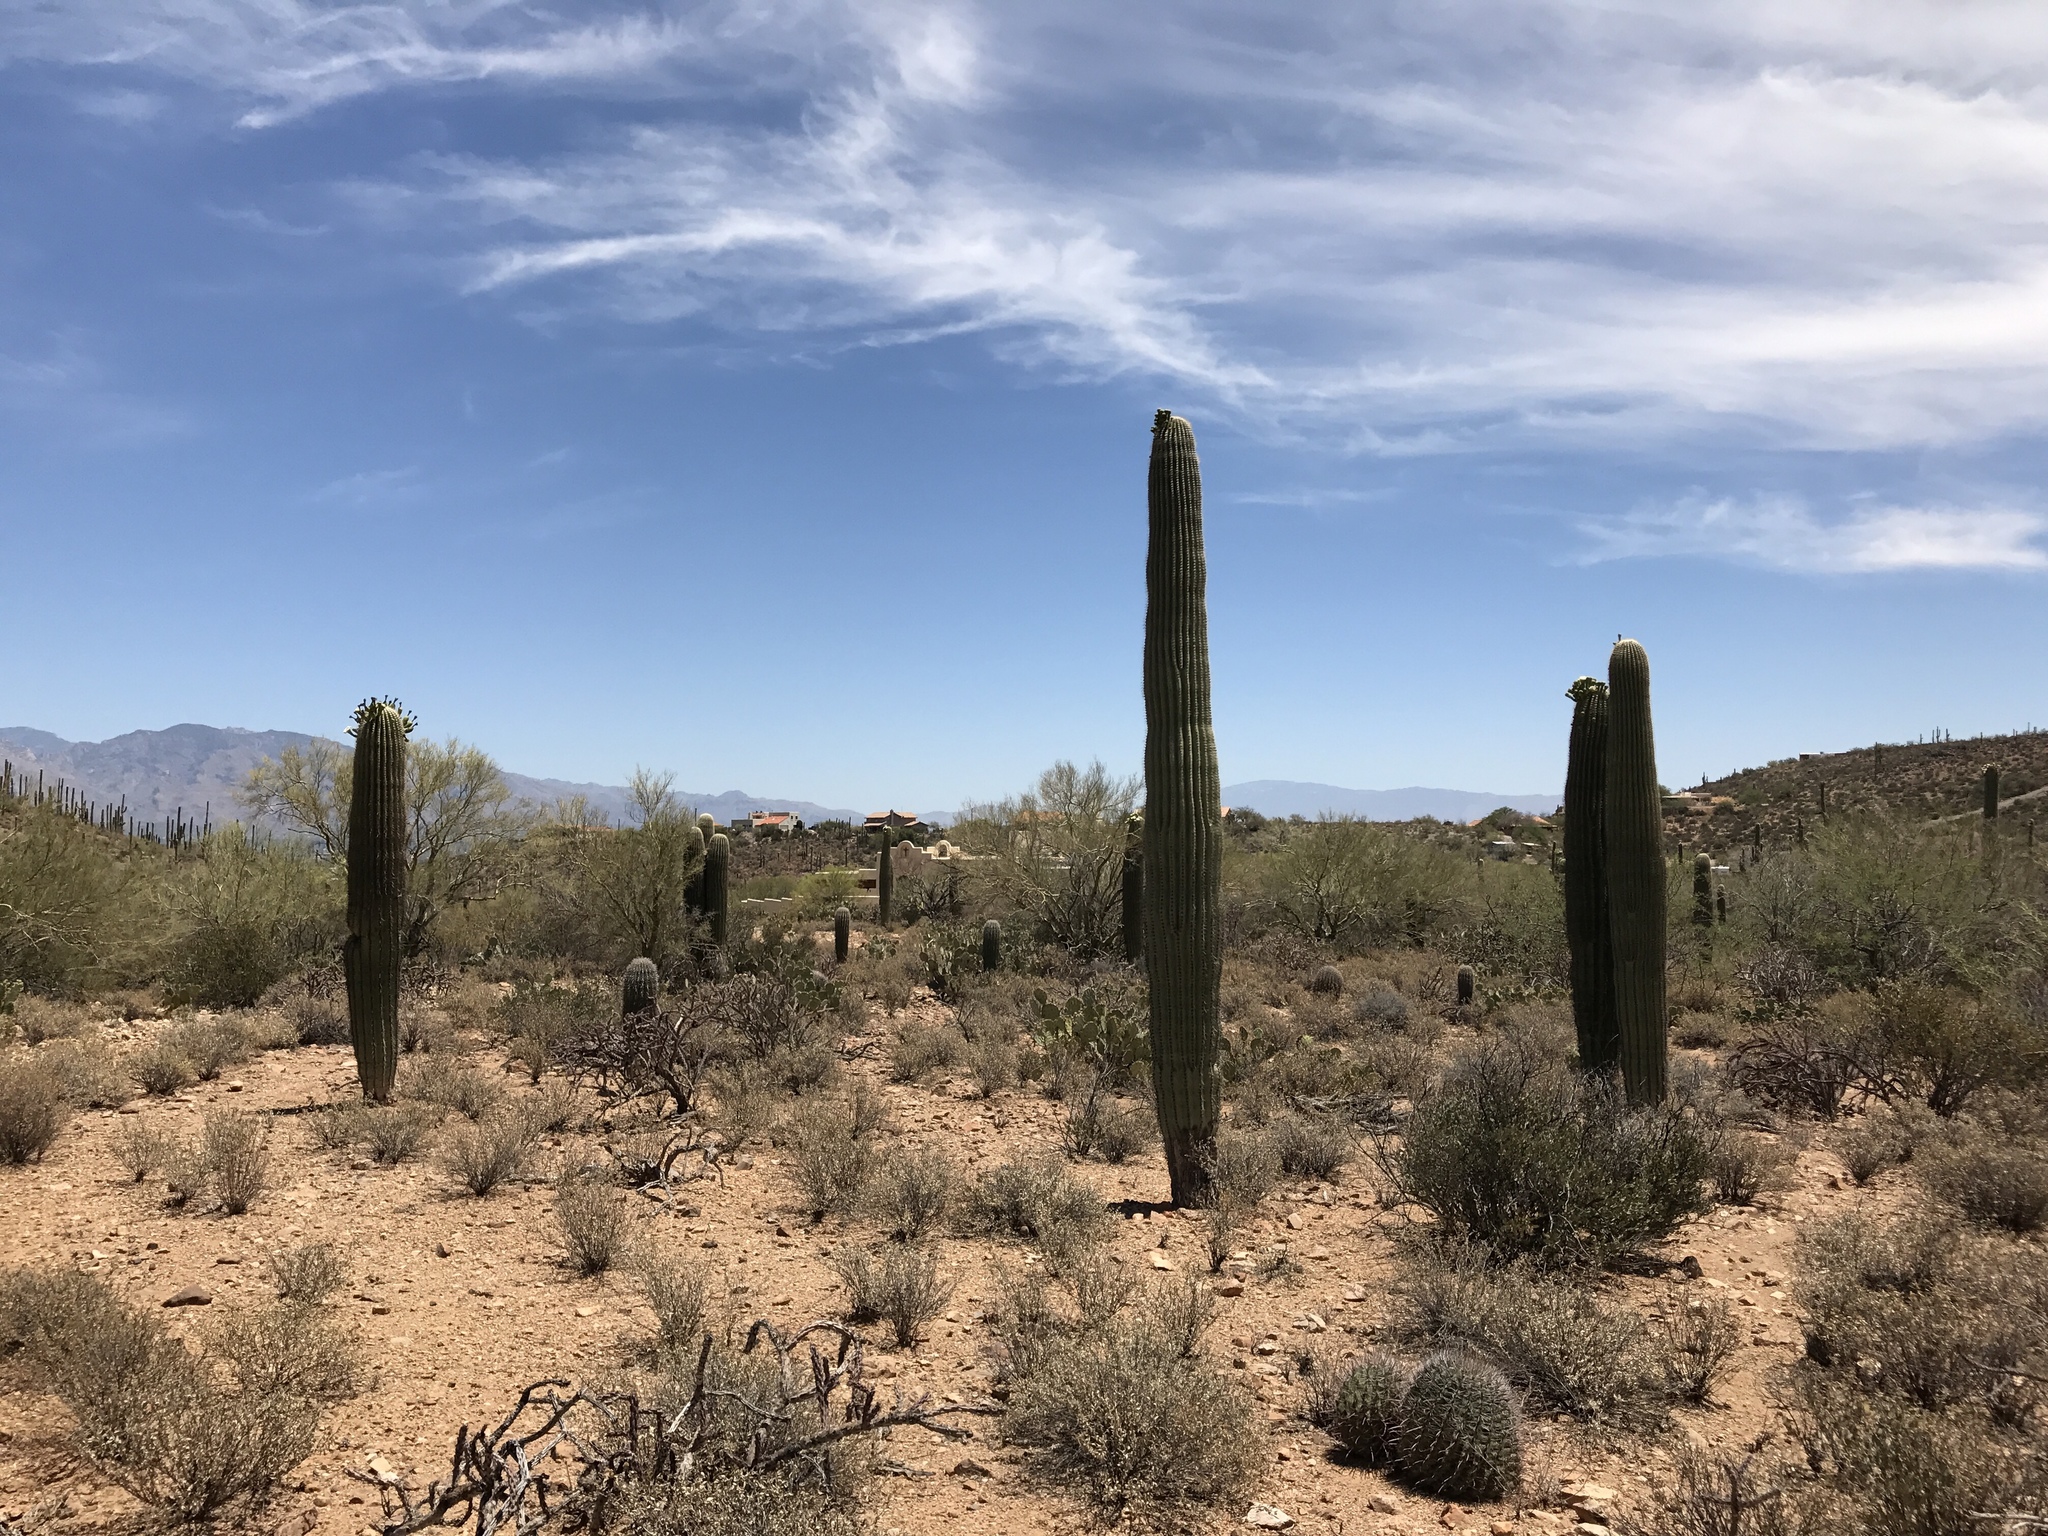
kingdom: Plantae
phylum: Tracheophyta
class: Magnoliopsida
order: Caryophyllales
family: Cactaceae
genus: Carnegiea
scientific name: Carnegiea gigantea
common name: Saguaro
